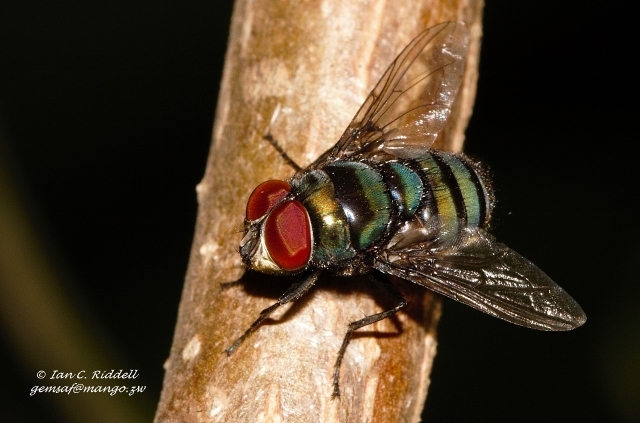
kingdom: Animalia
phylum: Arthropoda
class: Insecta
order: Diptera
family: Calliphoridae
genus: Chrysomya
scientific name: Chrysomya putoria
